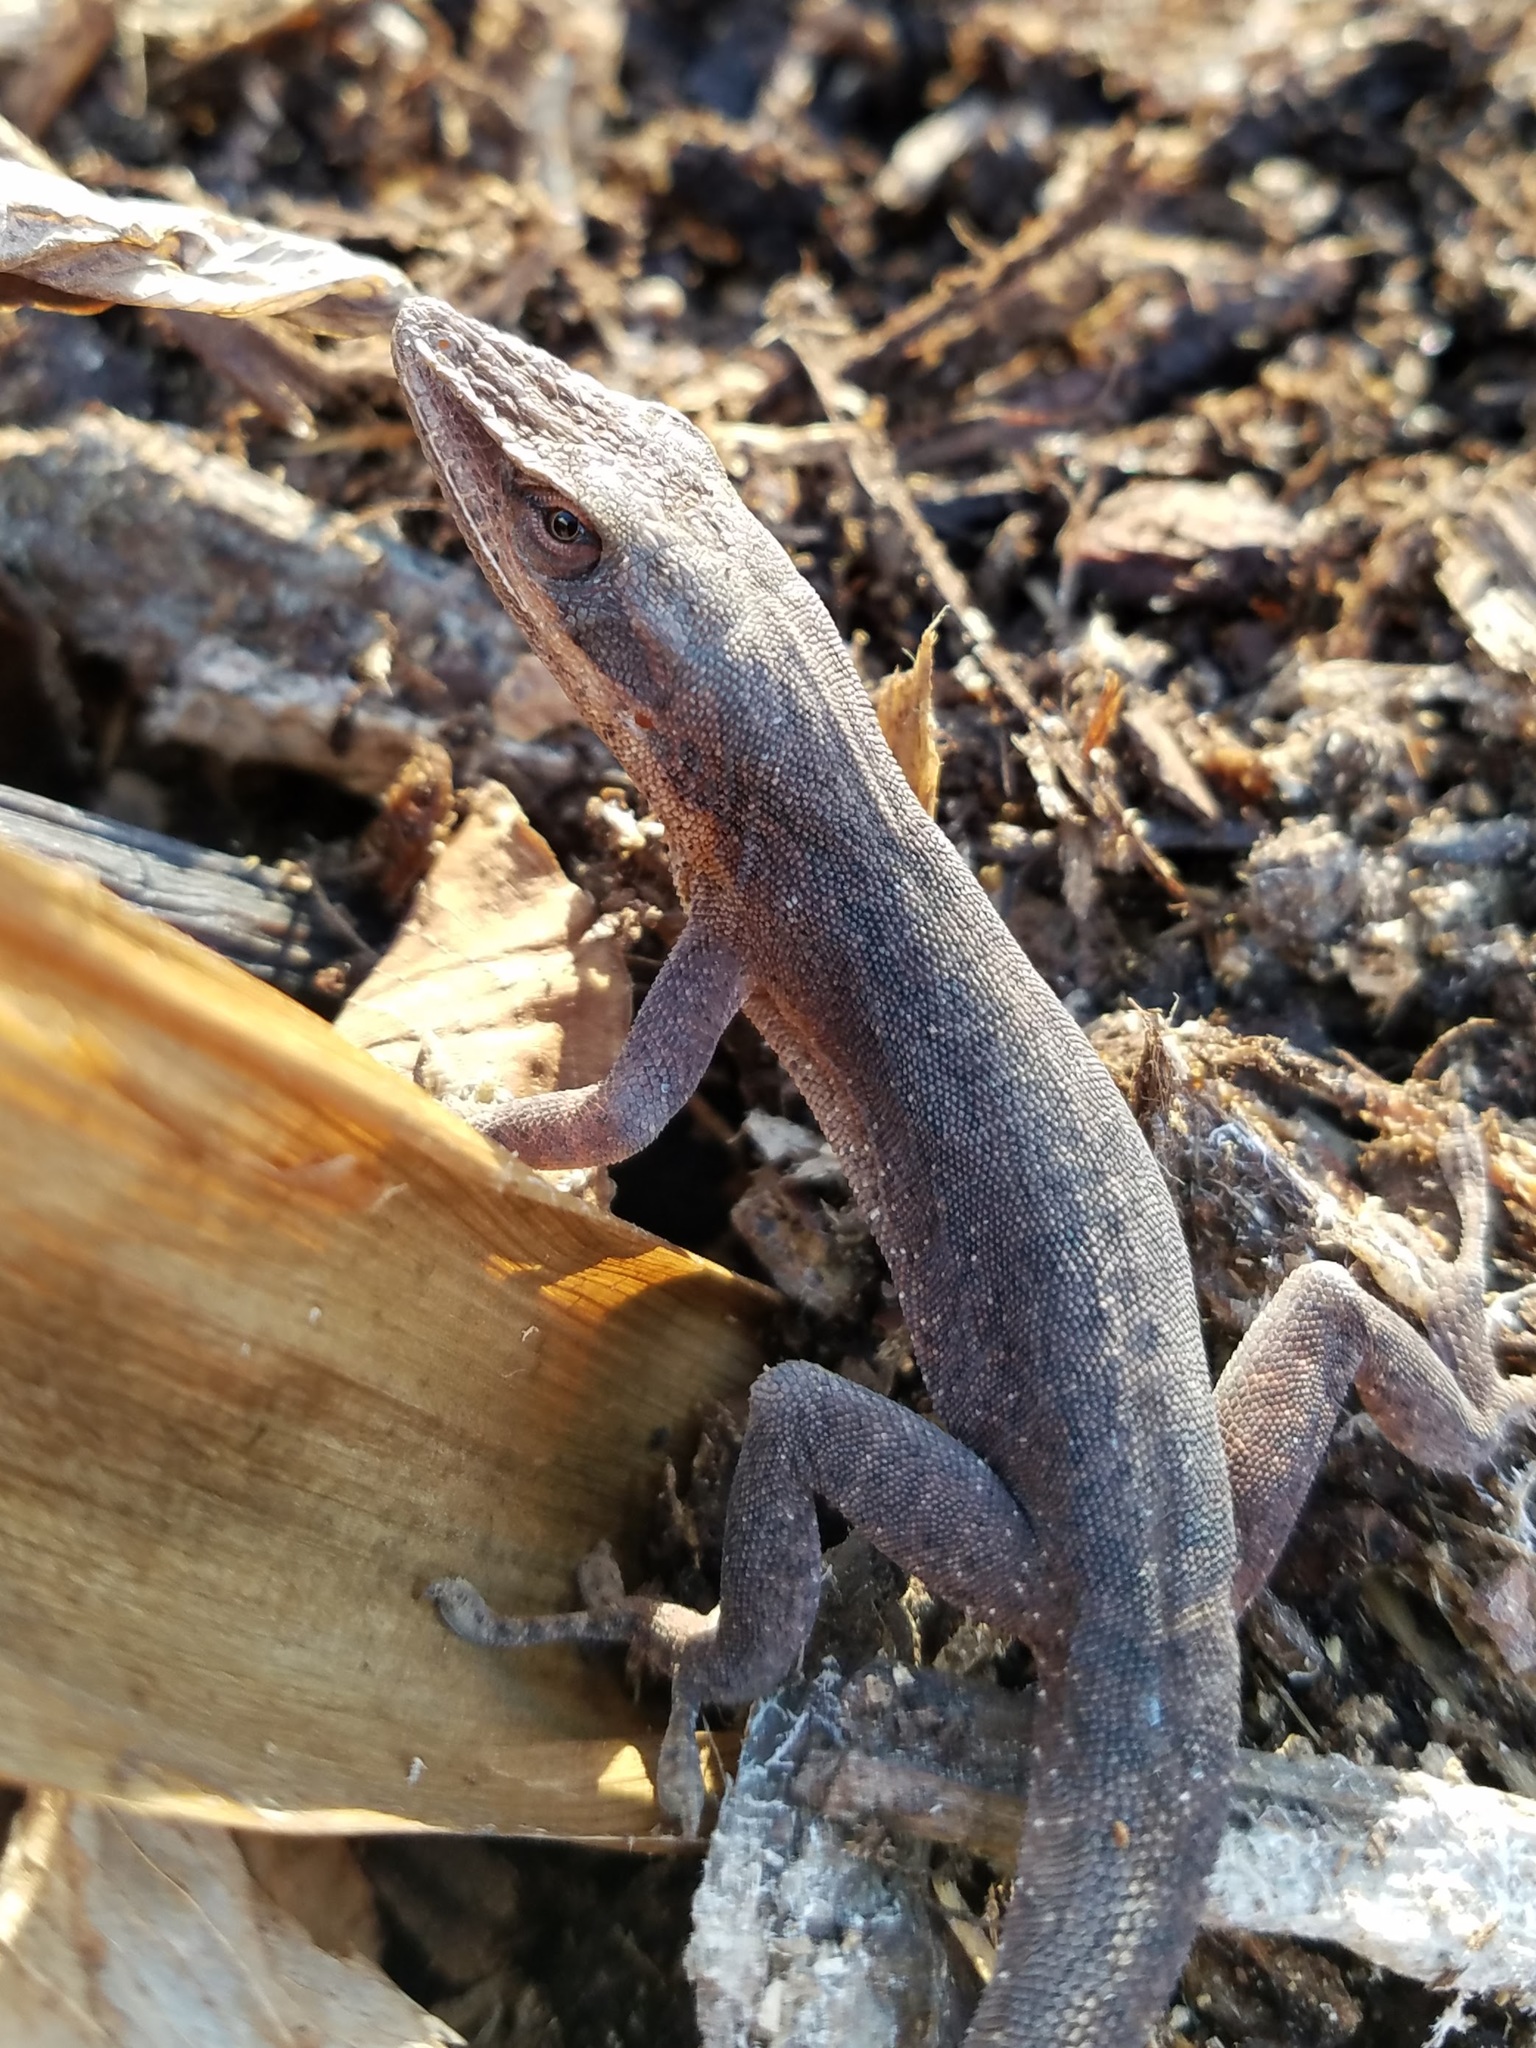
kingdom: Animalia
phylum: Chordata
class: Squamata
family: Dactyloidae
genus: Anolis
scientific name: Anolis carolinensis
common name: Green anole
